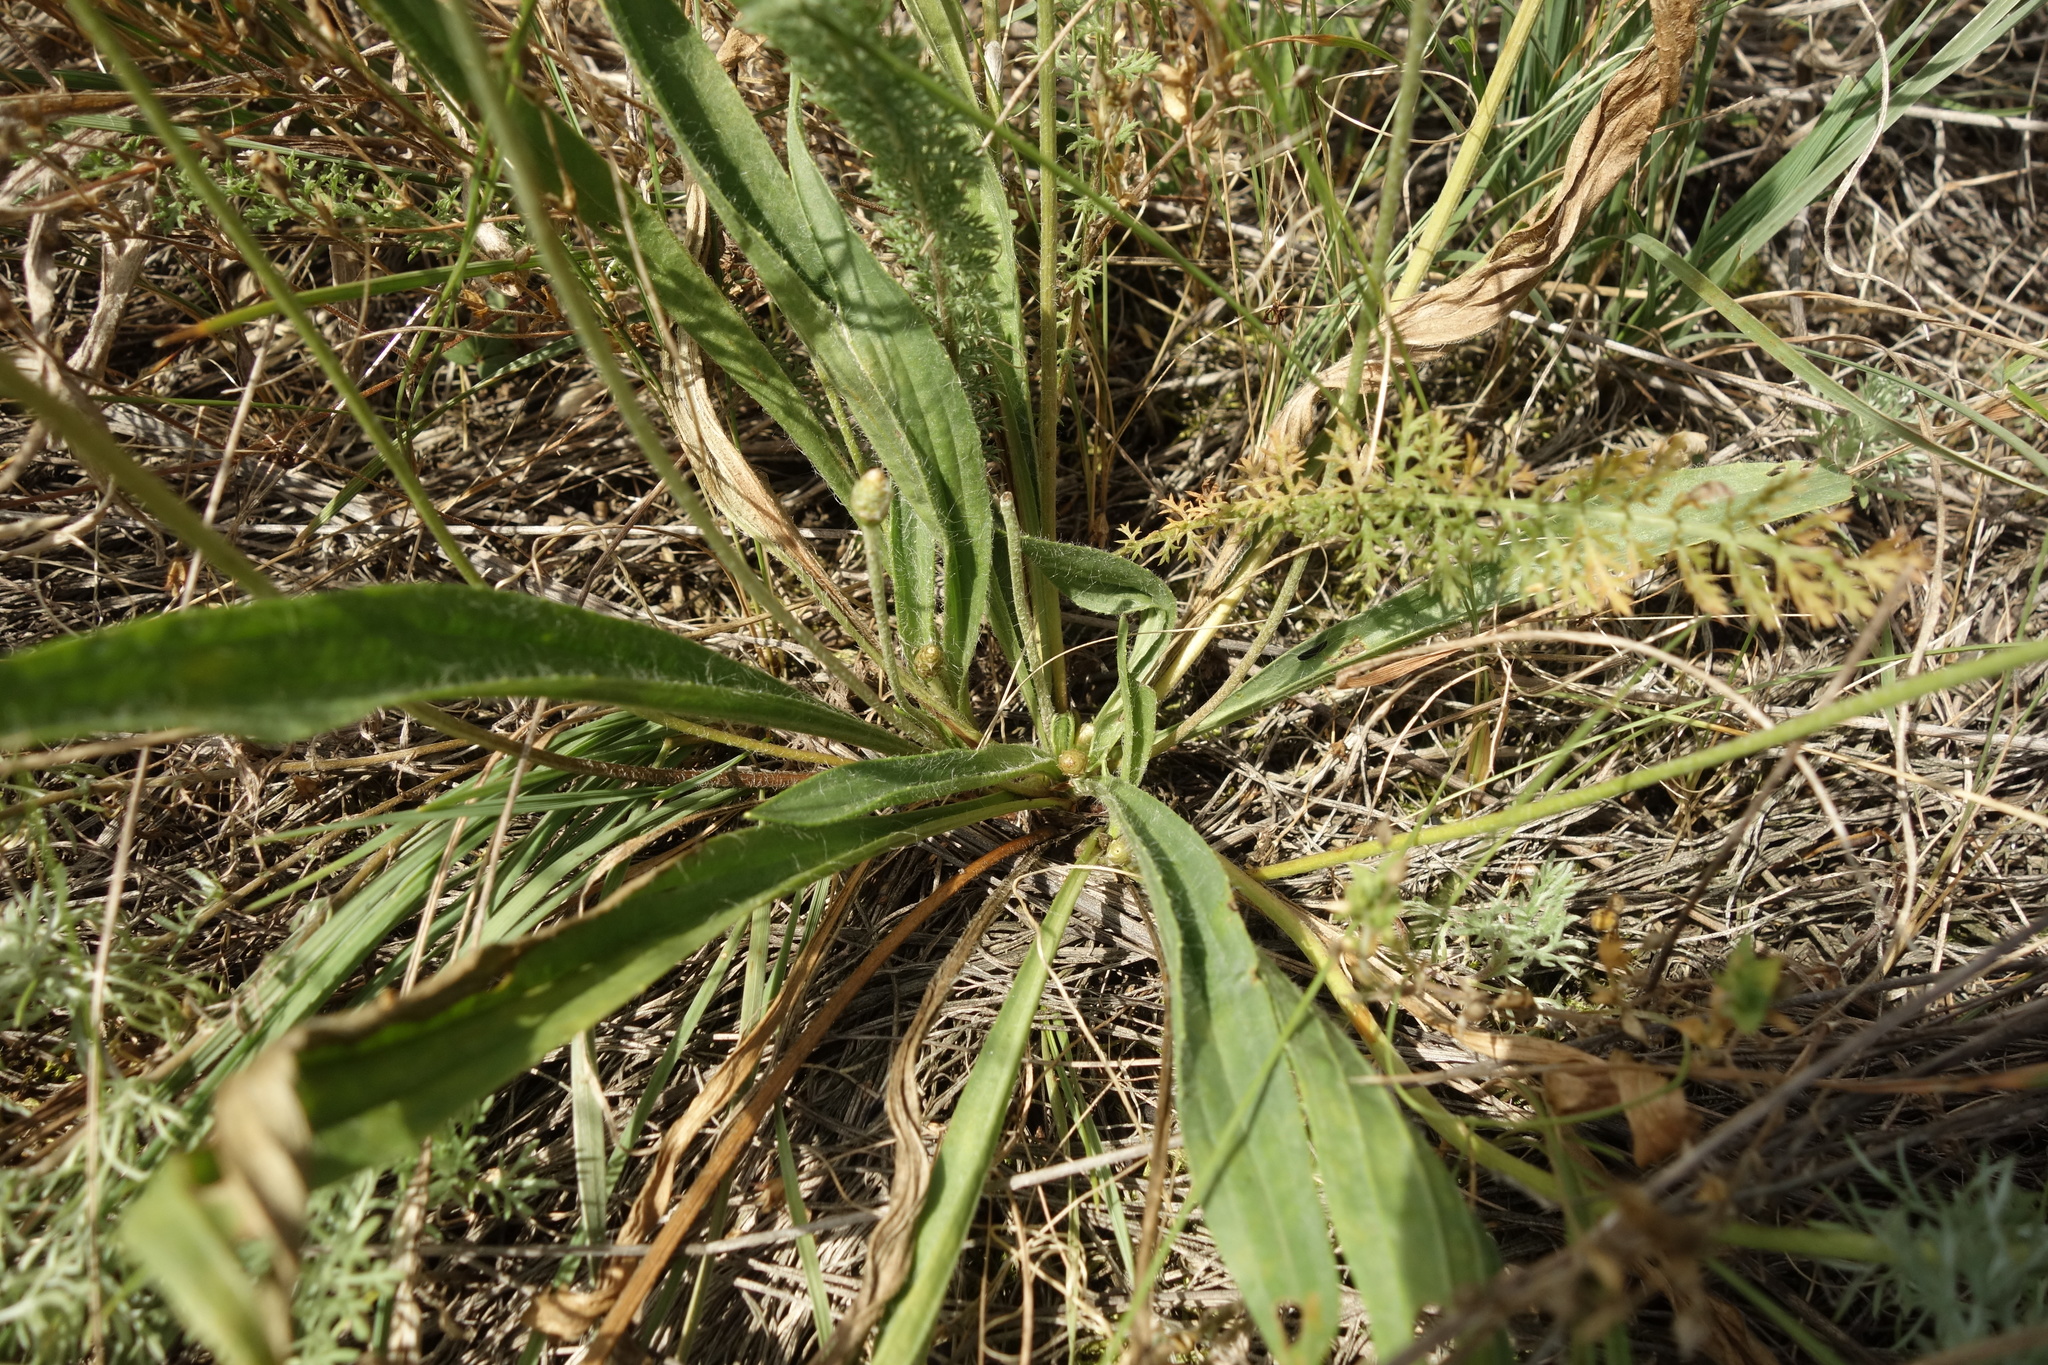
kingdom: Plantae
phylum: Tracheophyta
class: Magnoliopsida
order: Lamiales
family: Plantaginaceae
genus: Plantago
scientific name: Plantago lanceolata
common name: Ribwort plantain
